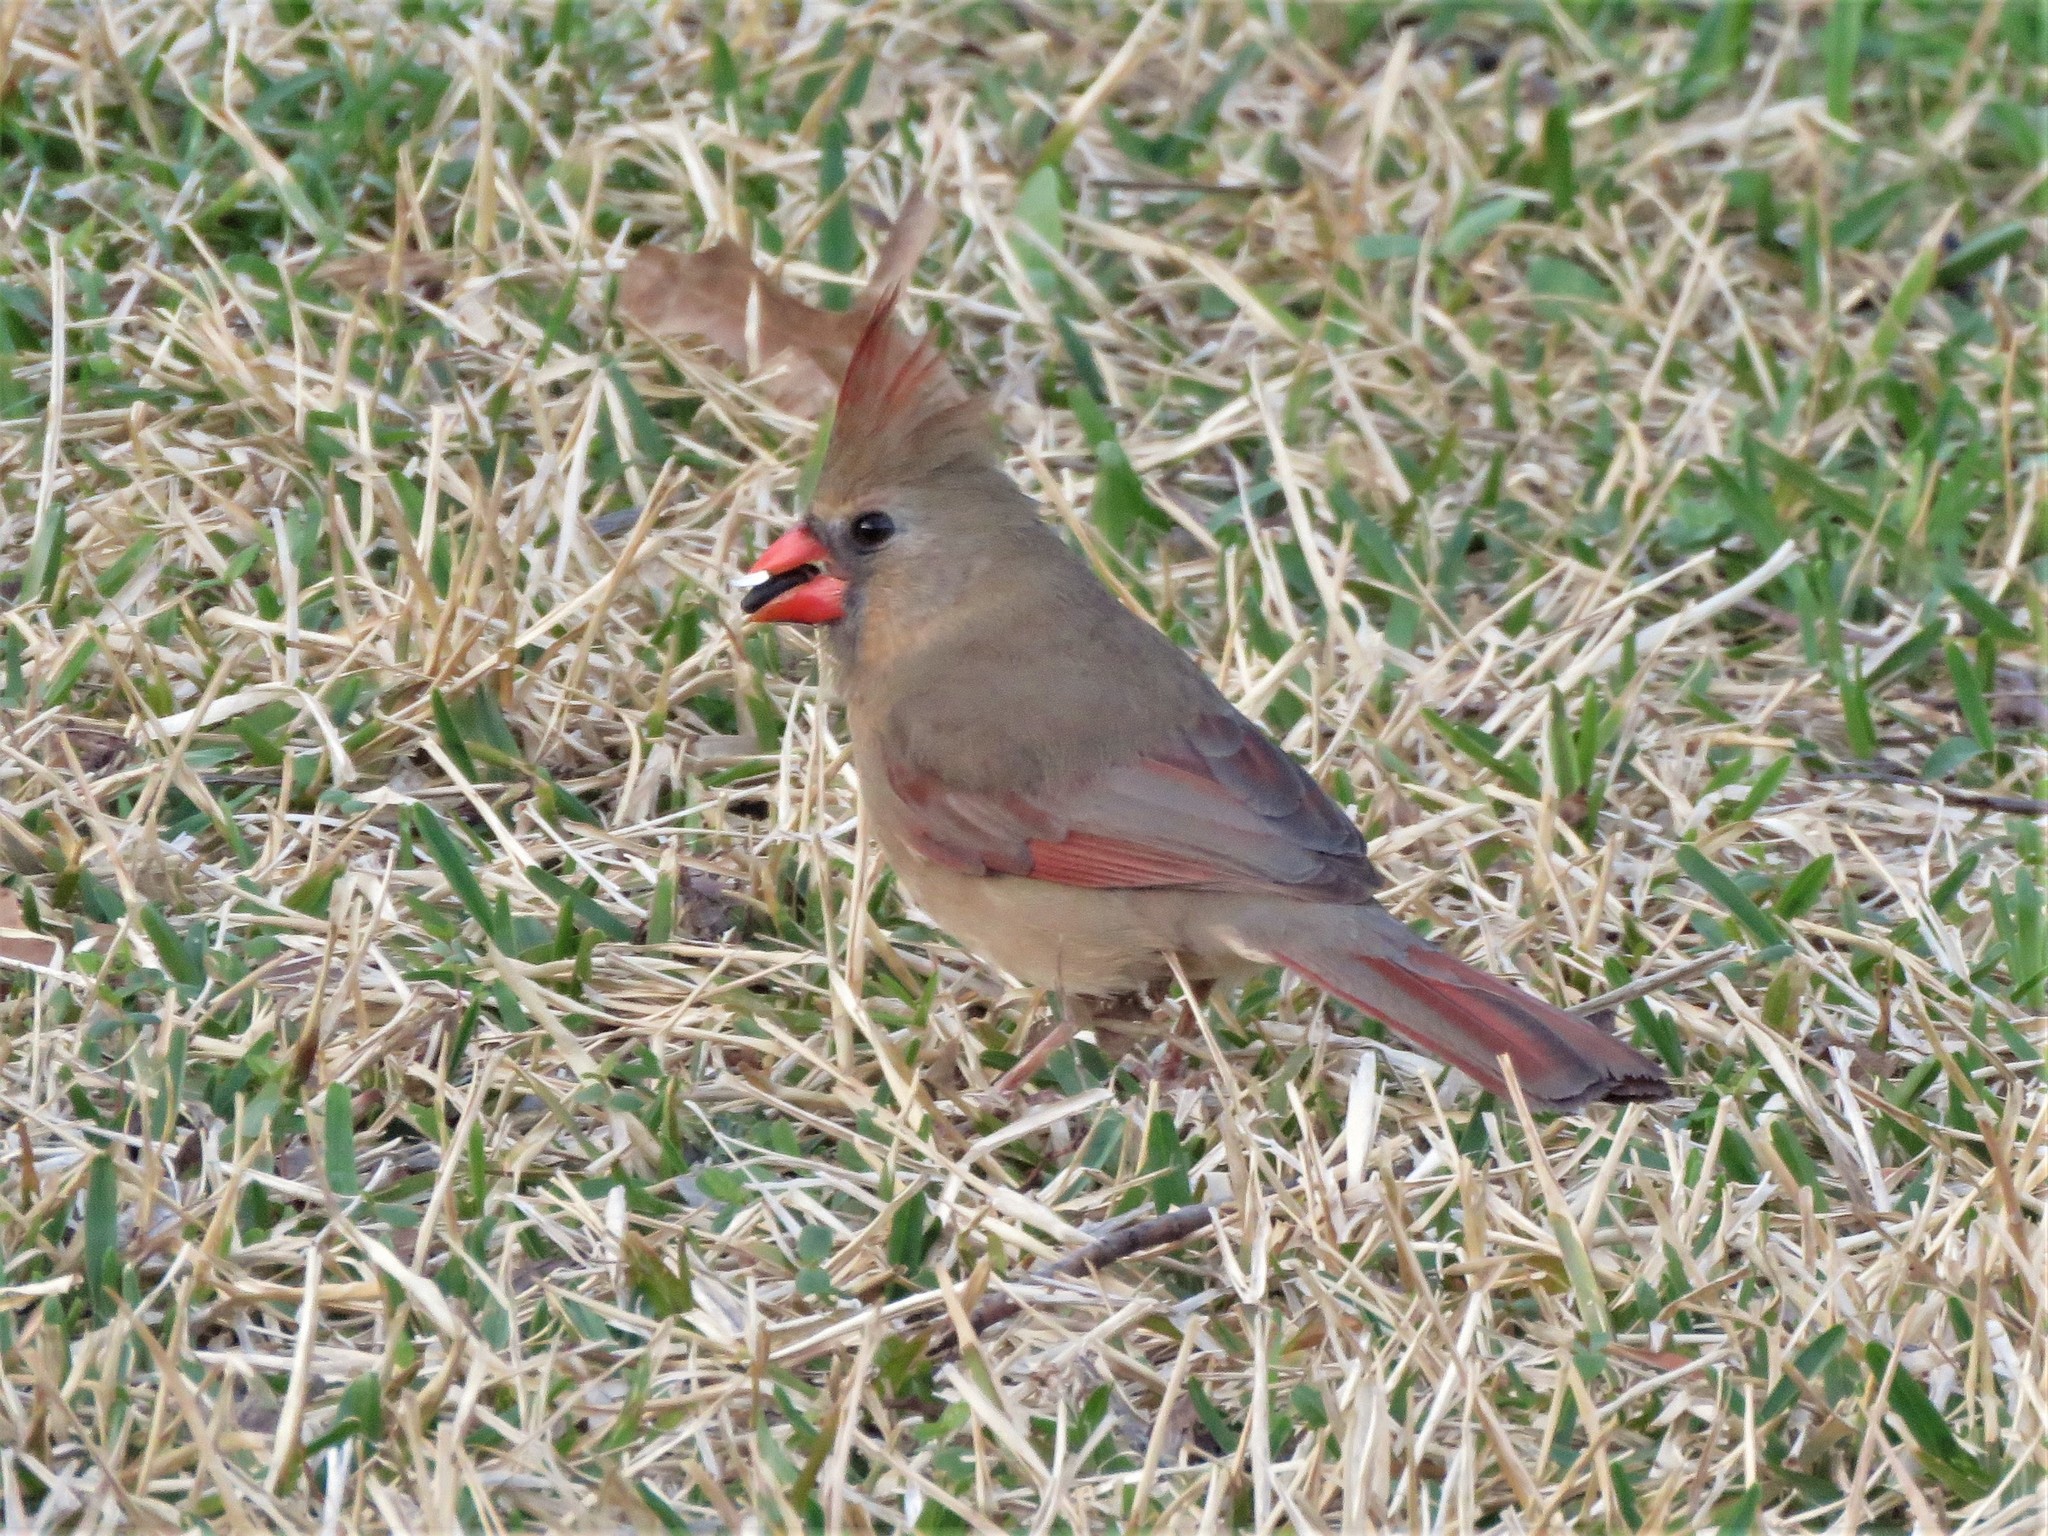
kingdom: Animalia
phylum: Chordata
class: Aves
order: Passeriformes
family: Cardinalidae
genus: Cardinalis
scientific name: Cardinalis cardinalis
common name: Northern cardinal
